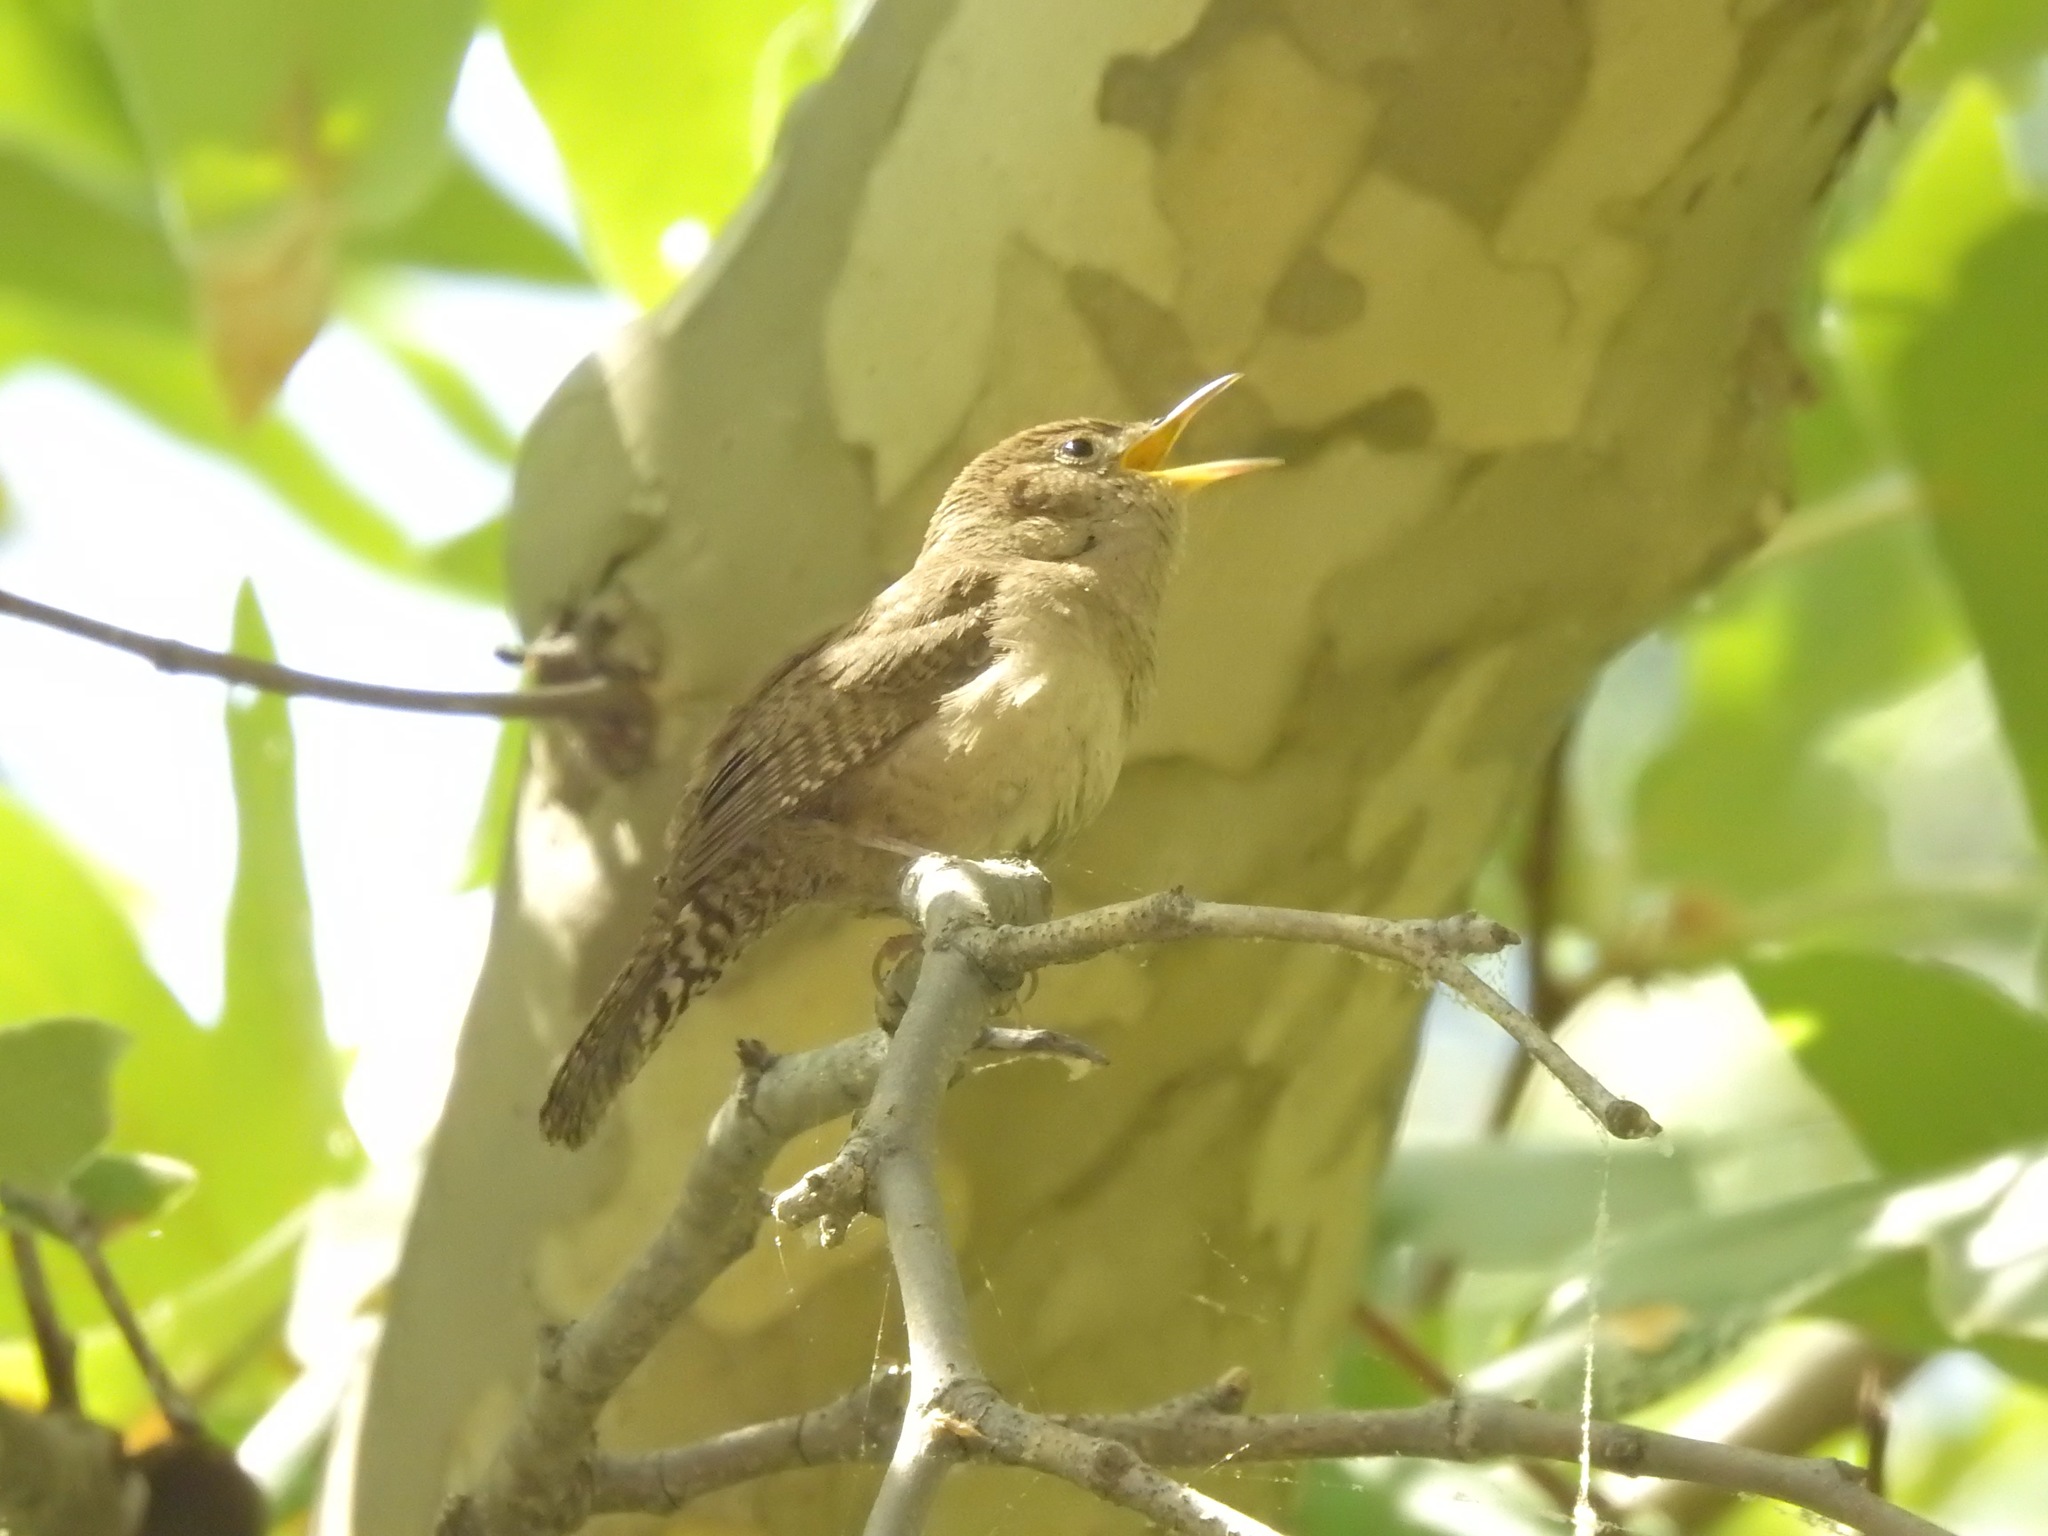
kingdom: Animalia
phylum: Chordata
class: Aves
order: Passeriformes
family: Troglodytidae
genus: Troglodytes
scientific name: Troglodytes aedon
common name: House wren
